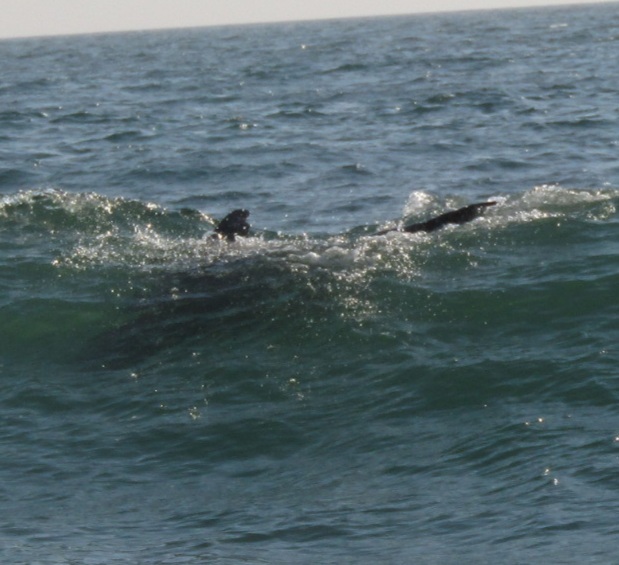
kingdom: Animalia
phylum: Chordata
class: Mammalia
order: Carnivora
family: Otariidae
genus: Zalophus
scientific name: Zalophus californianus
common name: California sea lion
